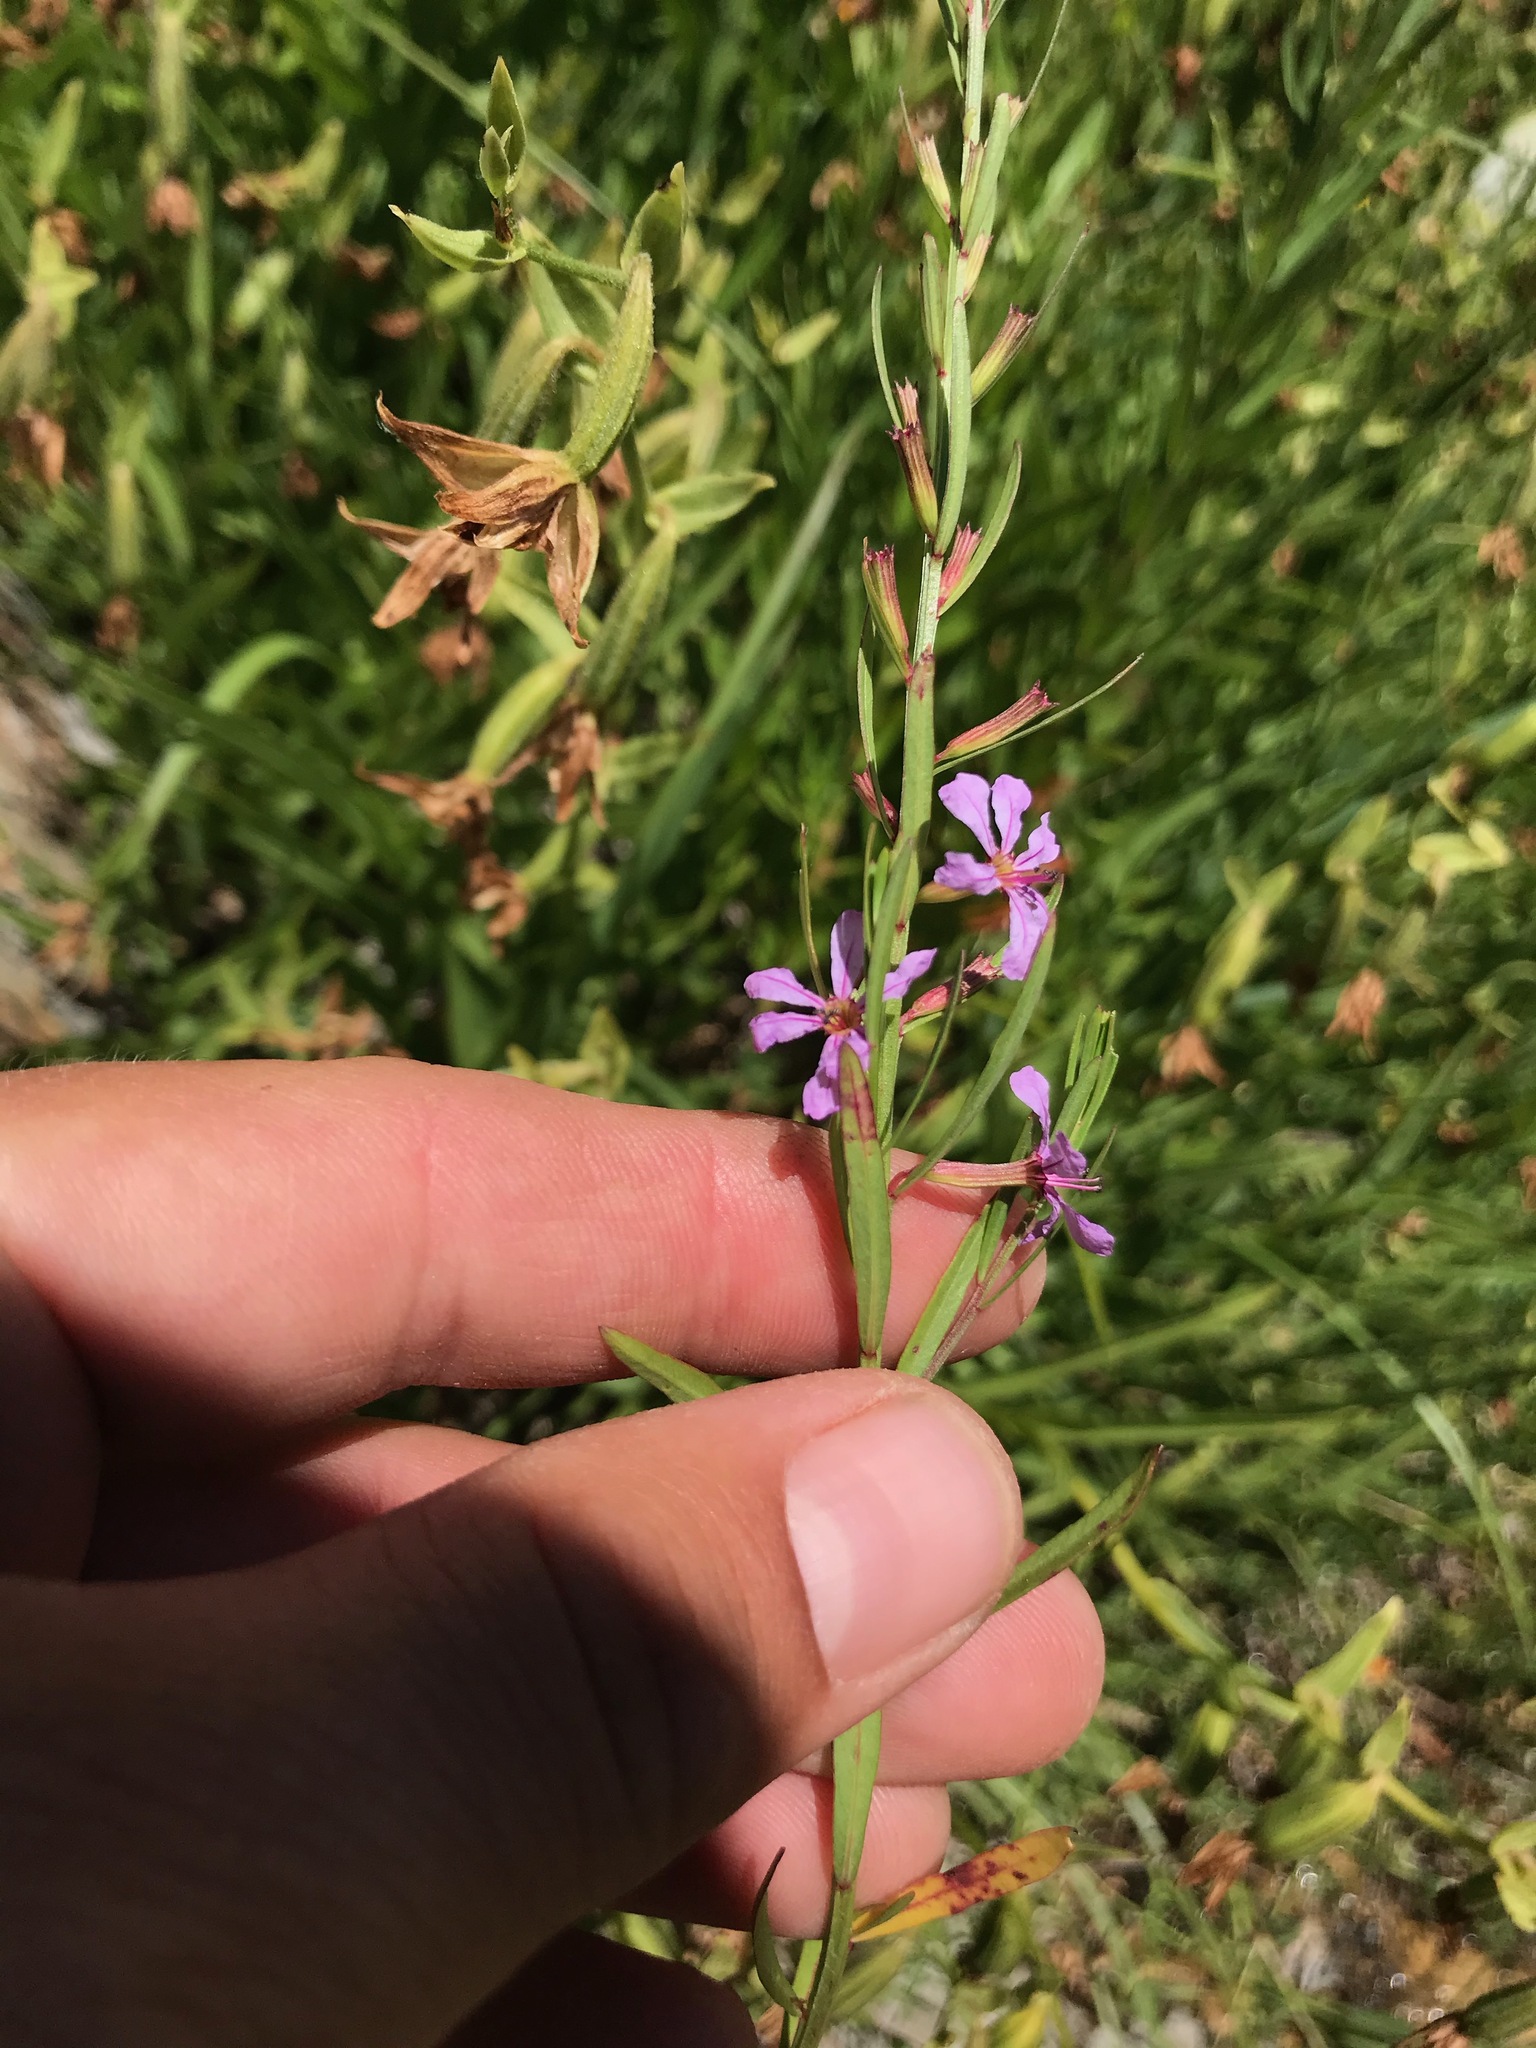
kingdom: Plantae
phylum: Tracheophyta
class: Magnoliopsida
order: Myrtales
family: Lythraceae
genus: Lythrum
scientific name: Lythrum californicum
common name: California loosestrife
